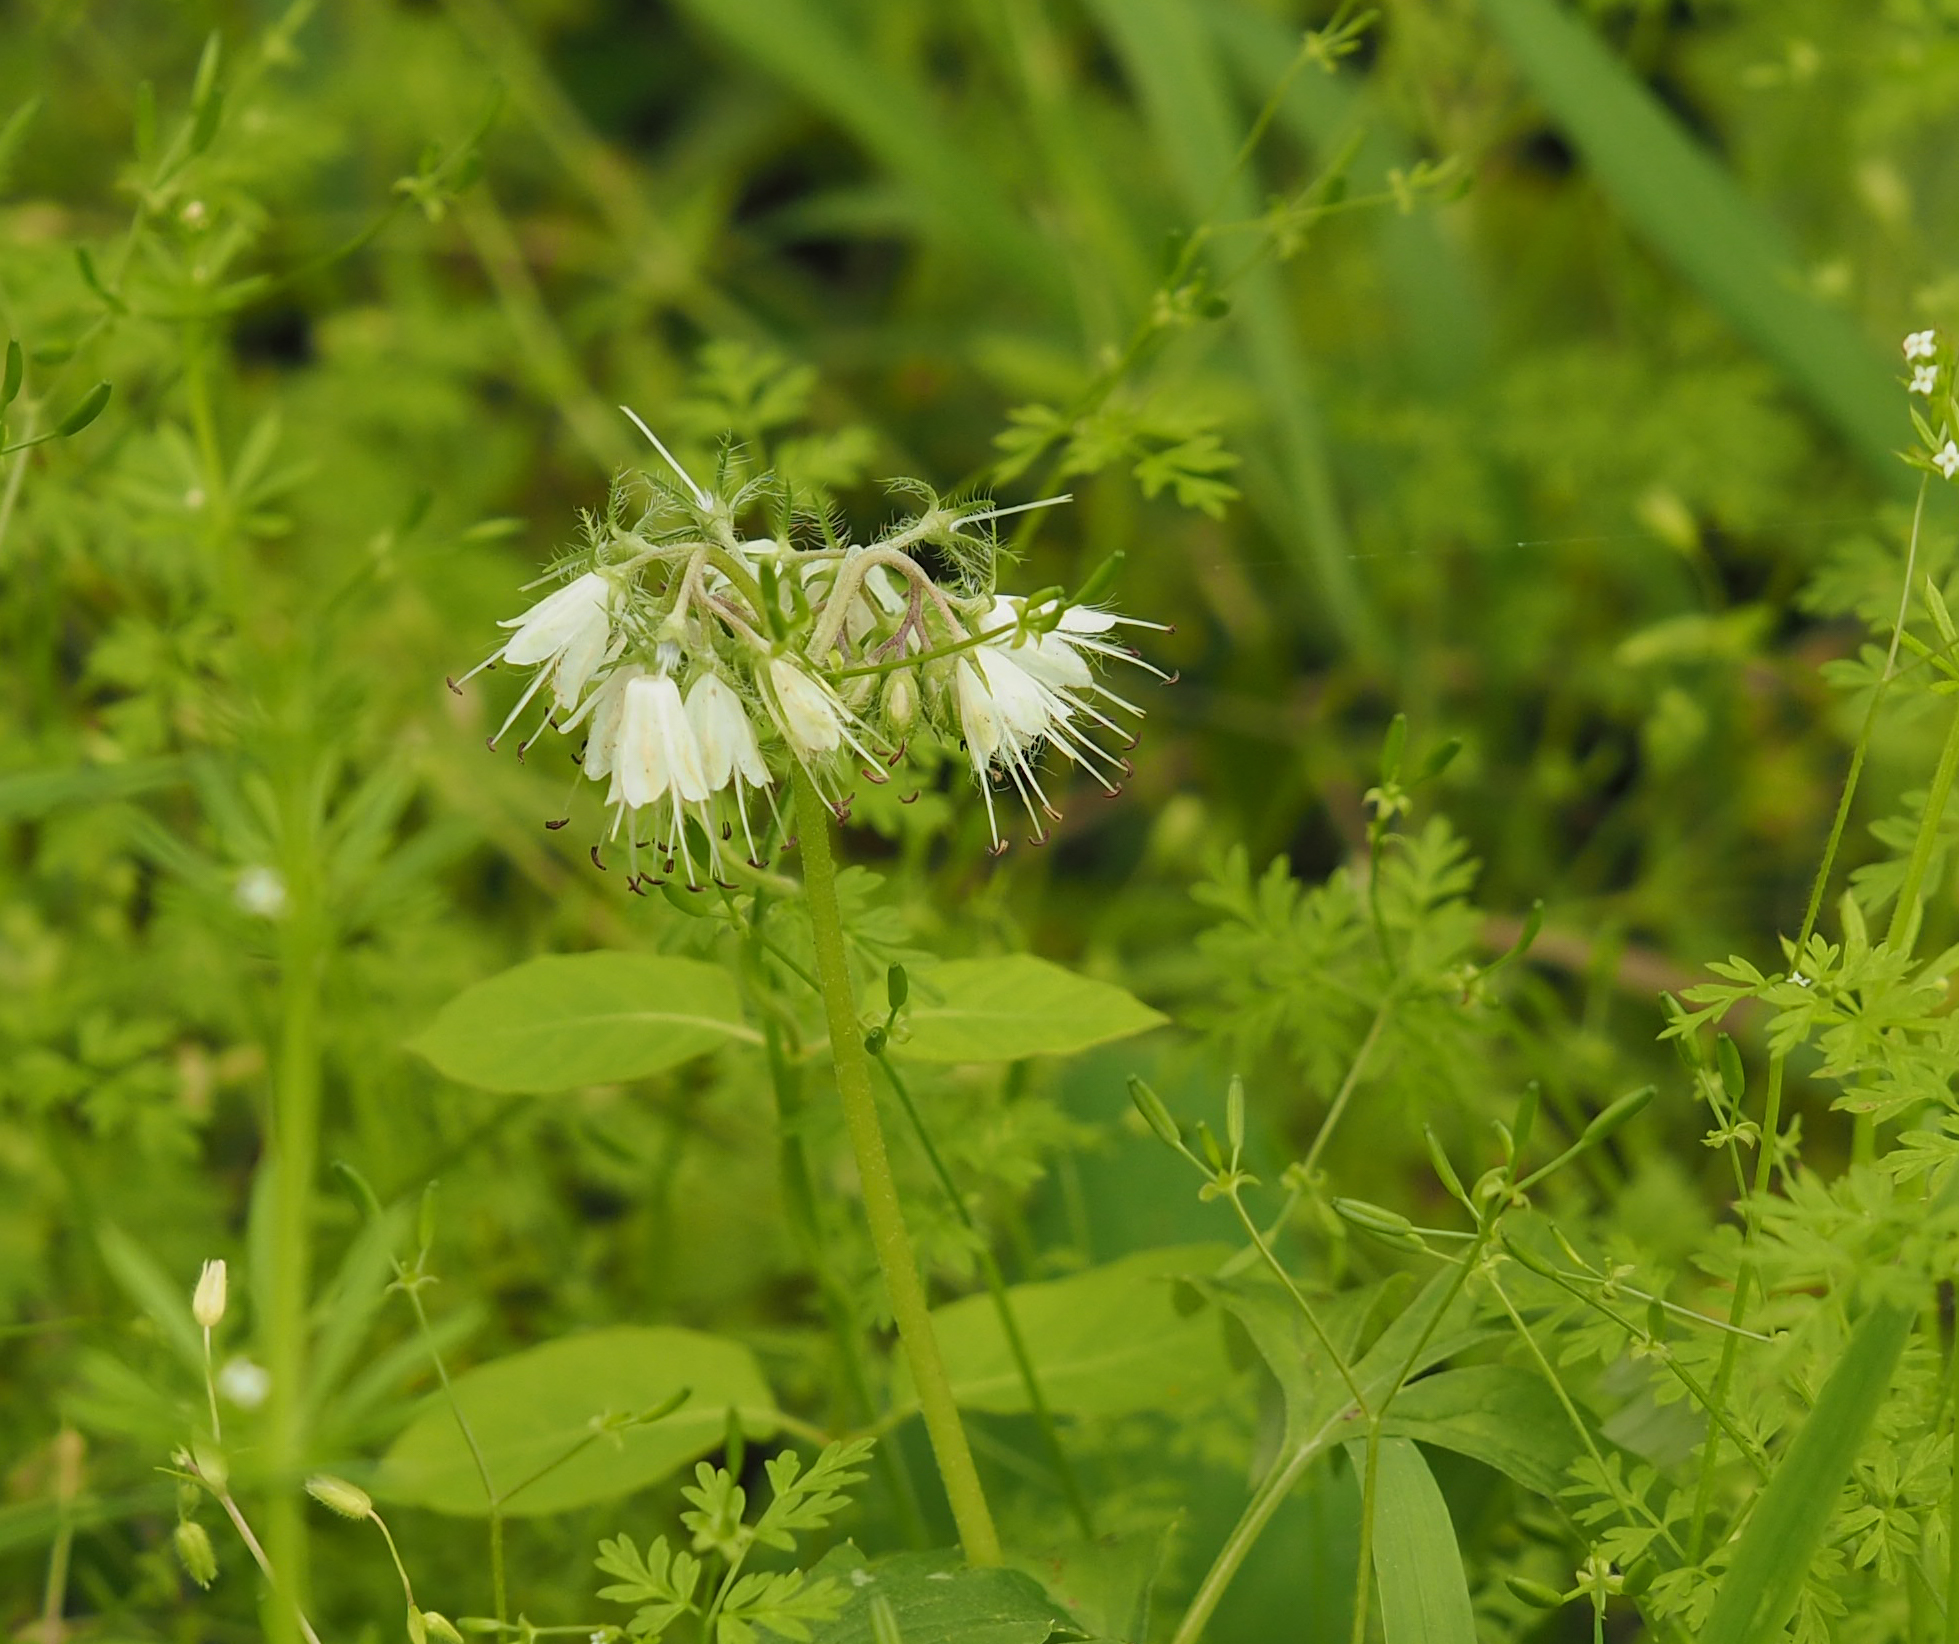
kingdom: Plantae
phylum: Tracheophyta
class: Magnoliopsida
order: Boraginales
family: Hydrophyllaceae
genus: Hydrophyllum
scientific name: Hydrophyllum virginianum
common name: Virginia waterleaf
